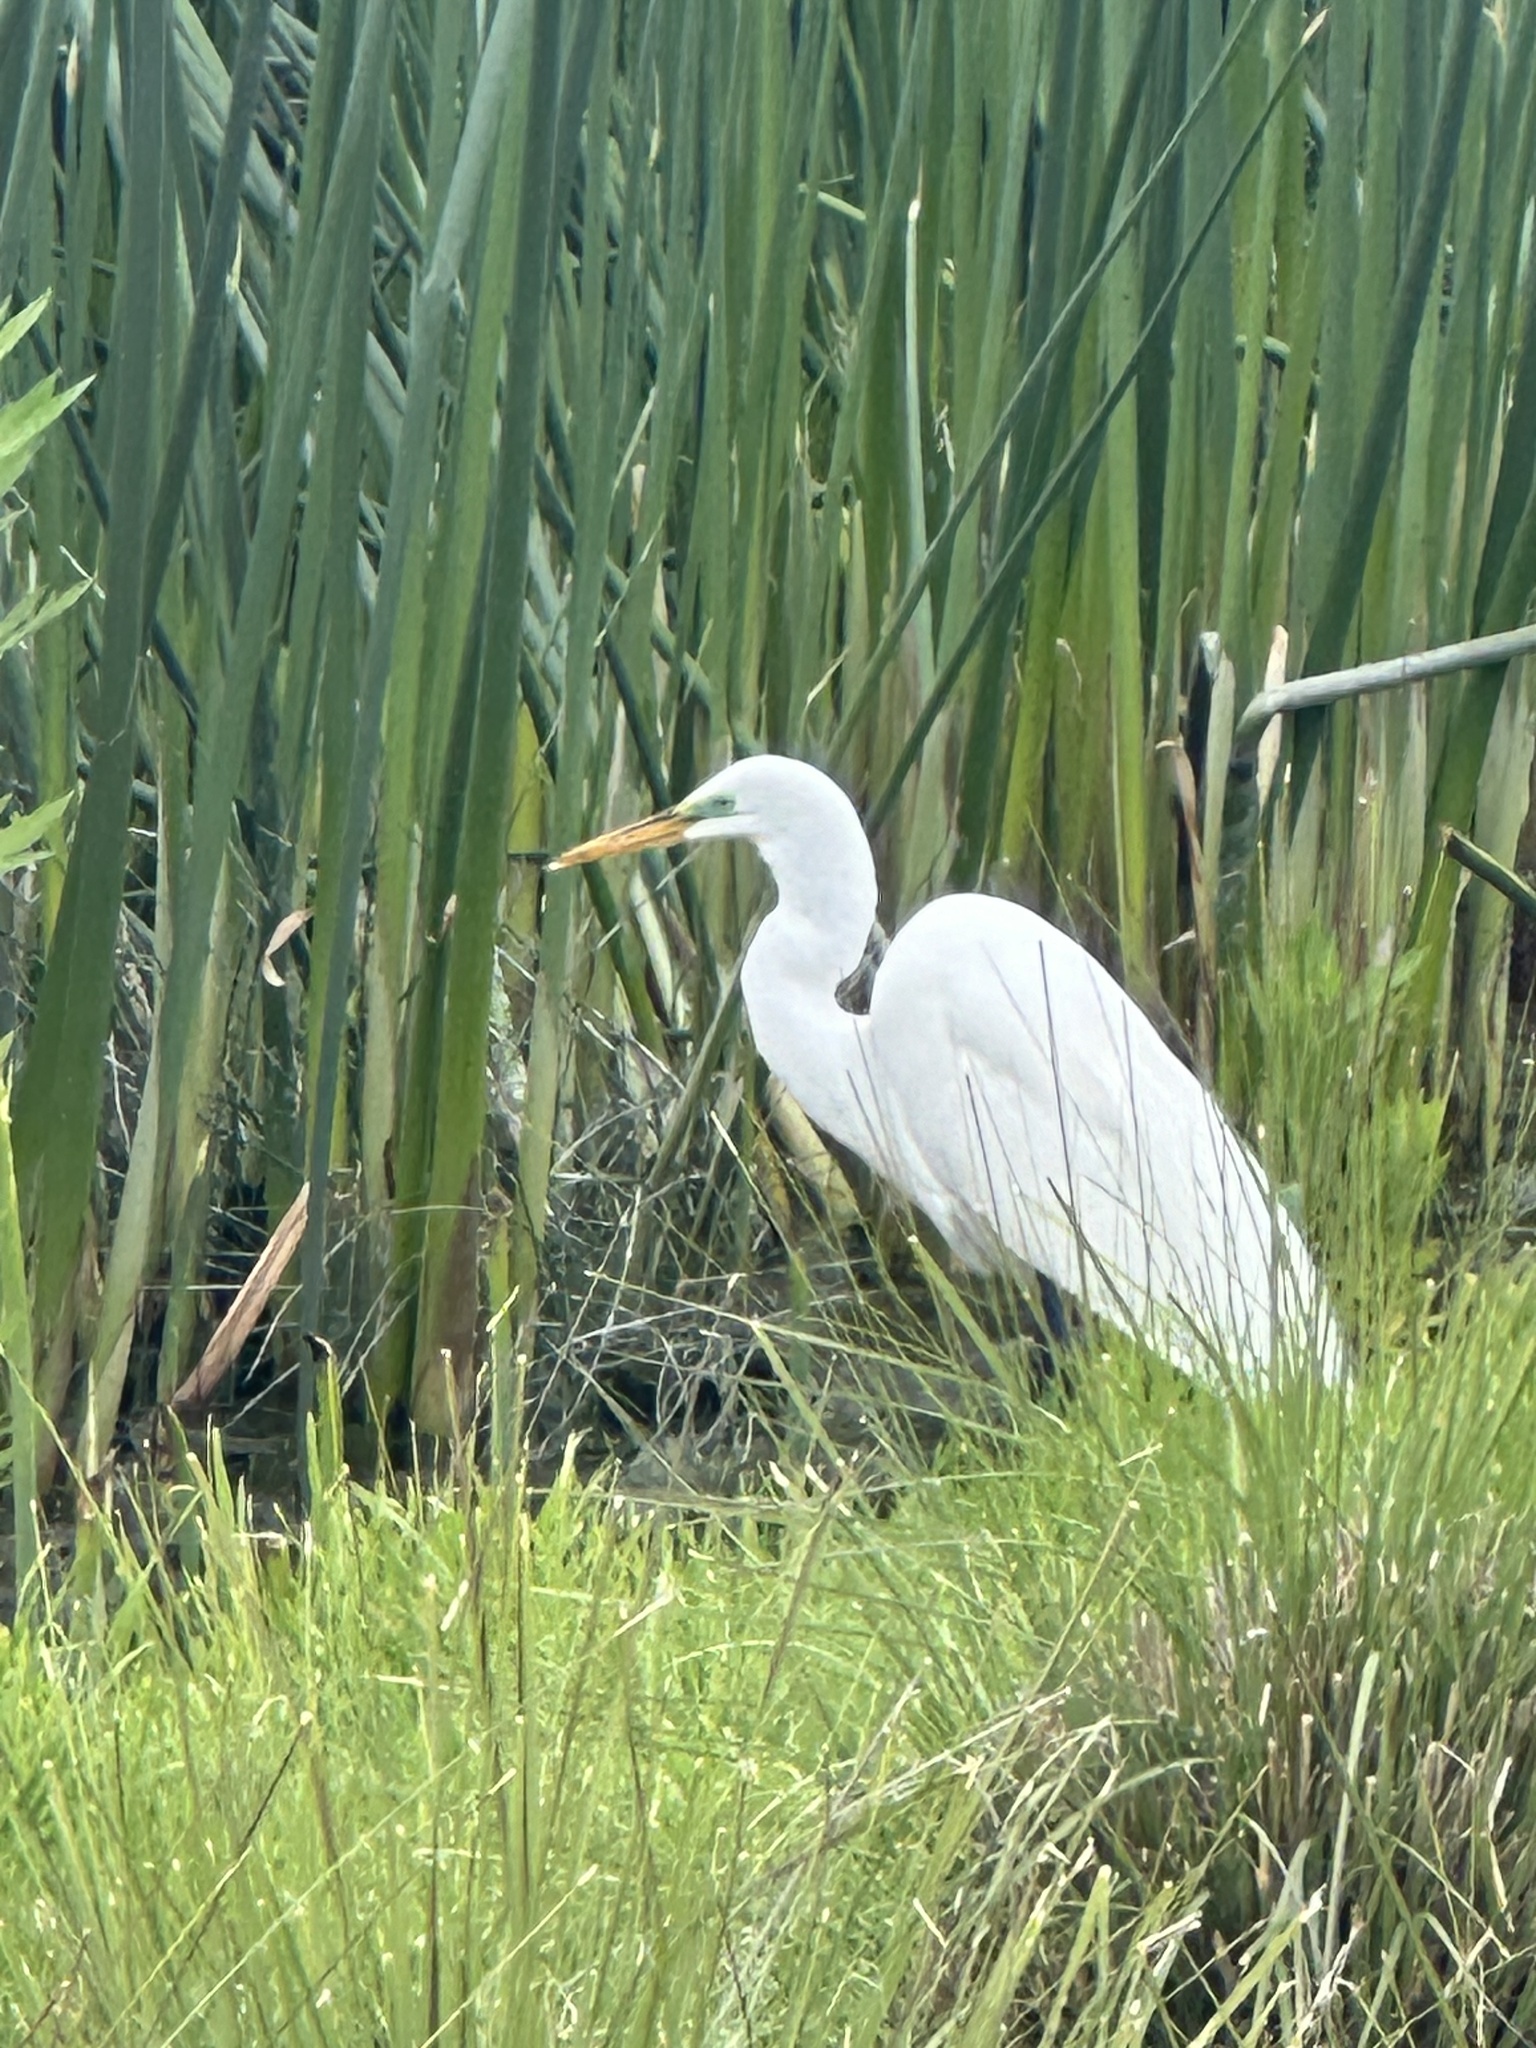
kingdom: Animalia
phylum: Chordata
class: Aves
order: Pelecaniformes
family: Ardeidae
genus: Ardea
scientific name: Ardea alba
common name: Great egret
